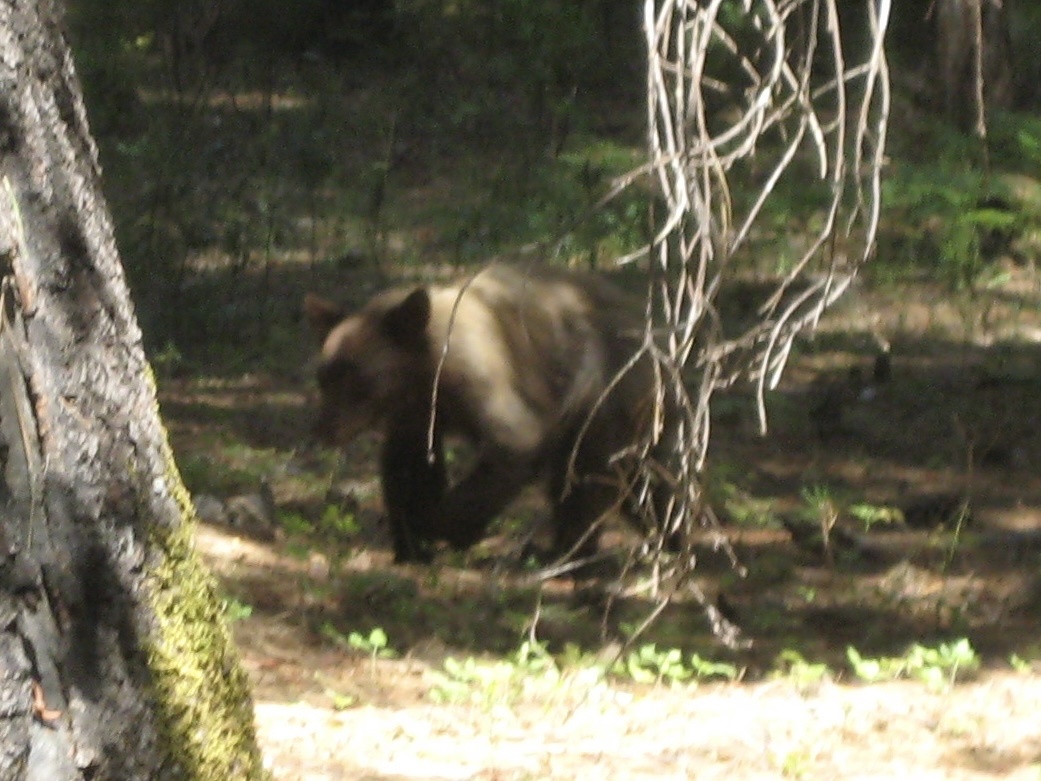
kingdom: Animalia
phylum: Chordata
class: Mammalia
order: Carnivora
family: Ursidae
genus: Ursus
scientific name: Ursus americanus
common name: American black bear
